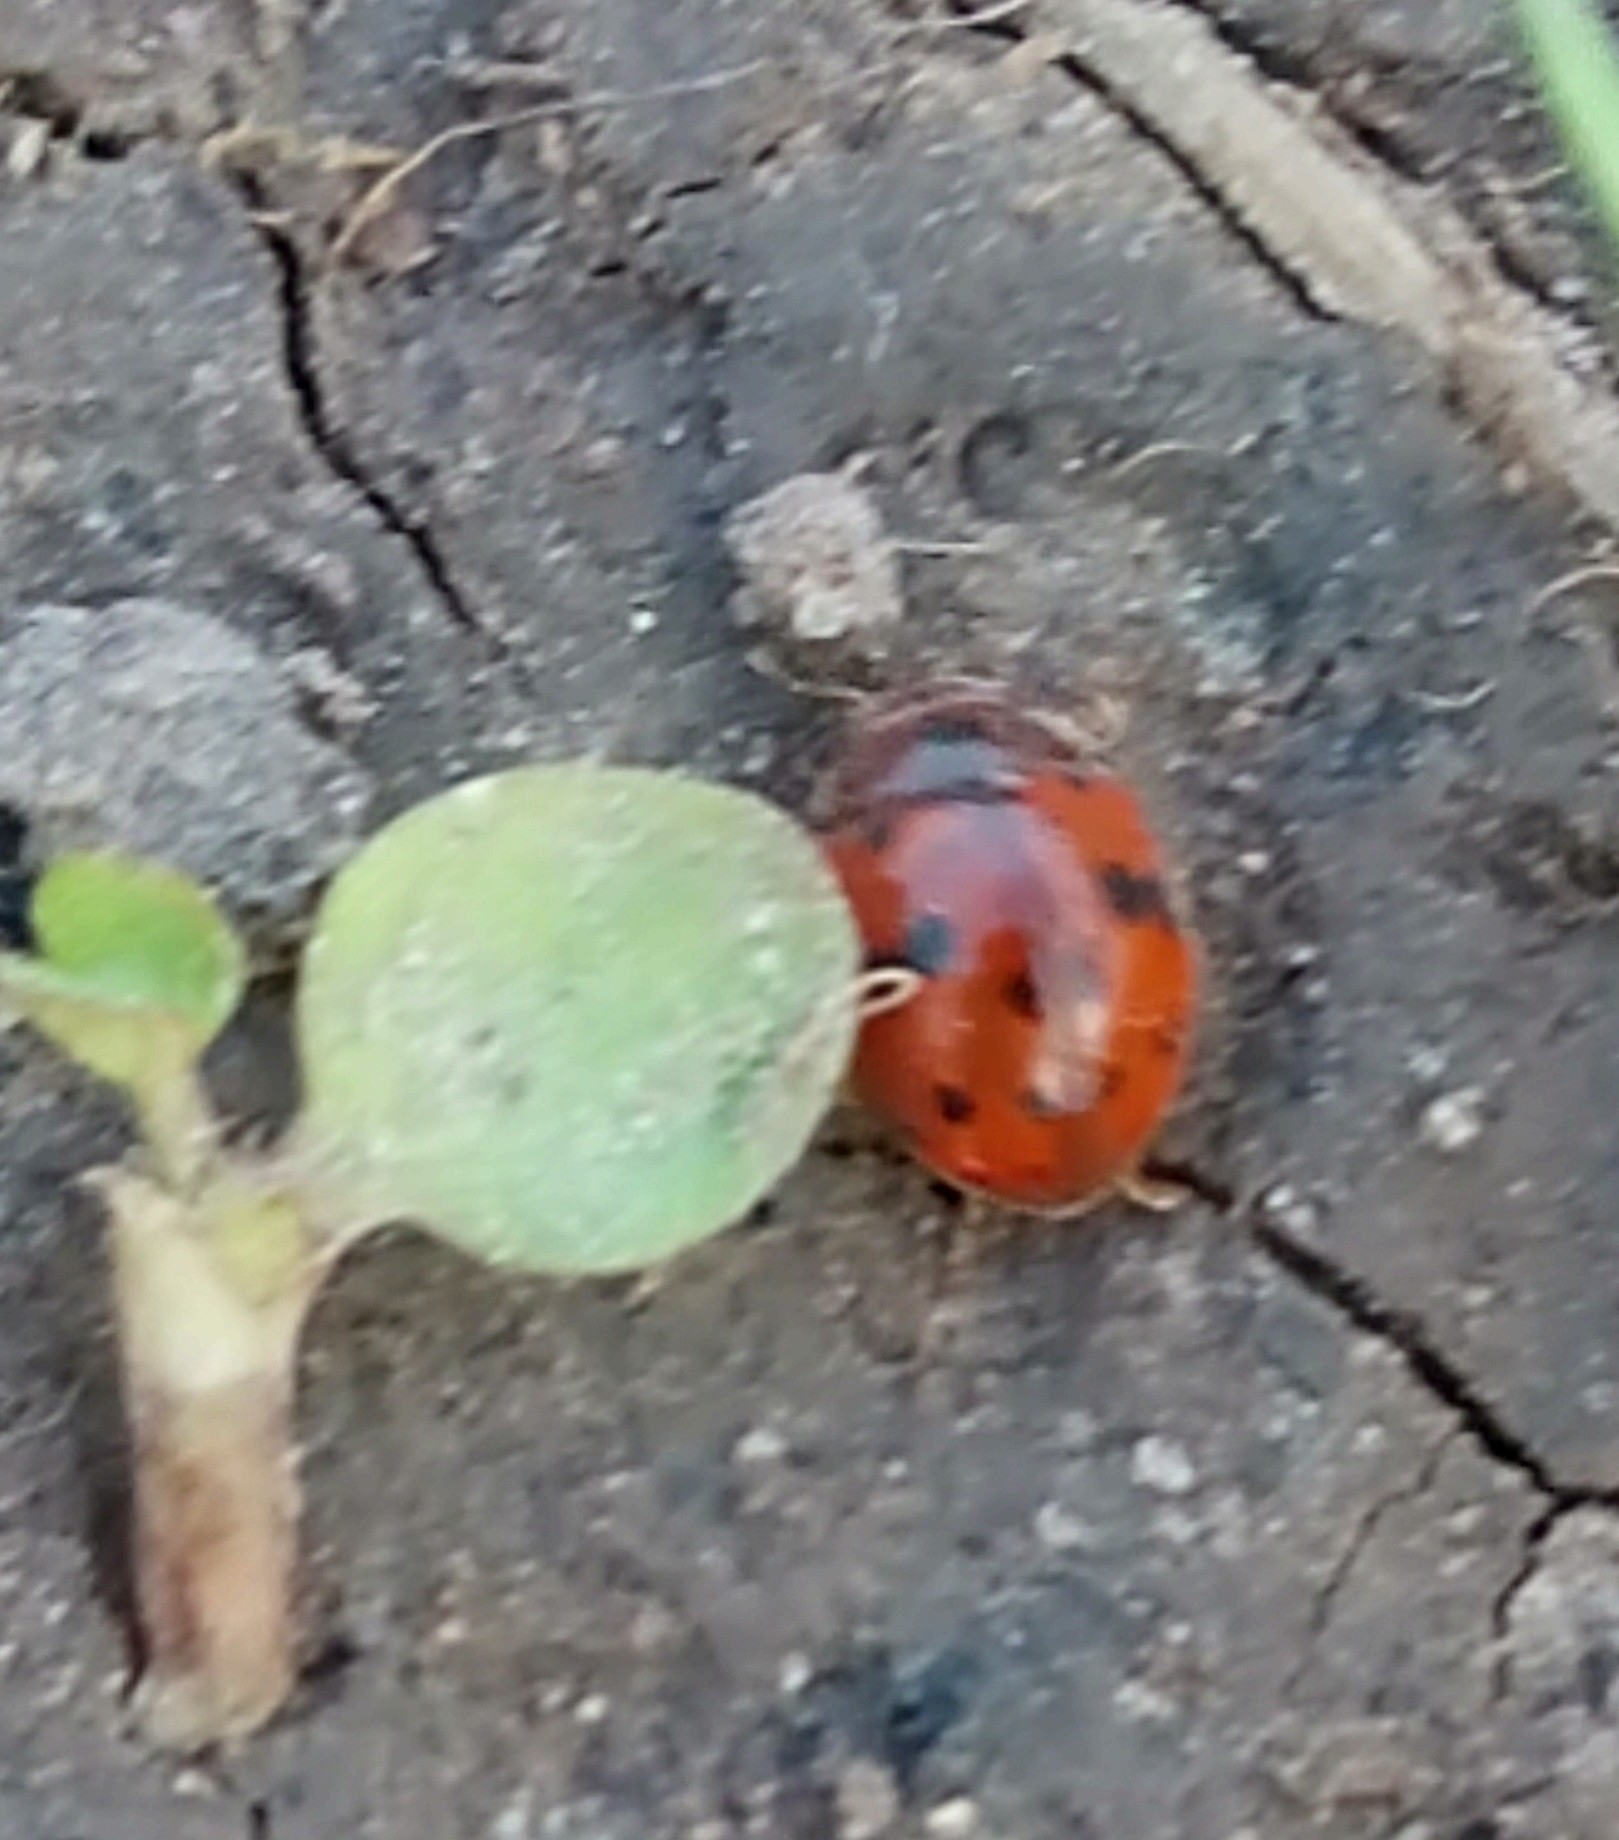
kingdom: Animalia
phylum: Arthropoda
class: Insecta
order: Coleoptera
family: Coccinellidae
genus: Subcoccinella
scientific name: Subcoccinella vigintiquatuorpunctata
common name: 24-spot ladybird
